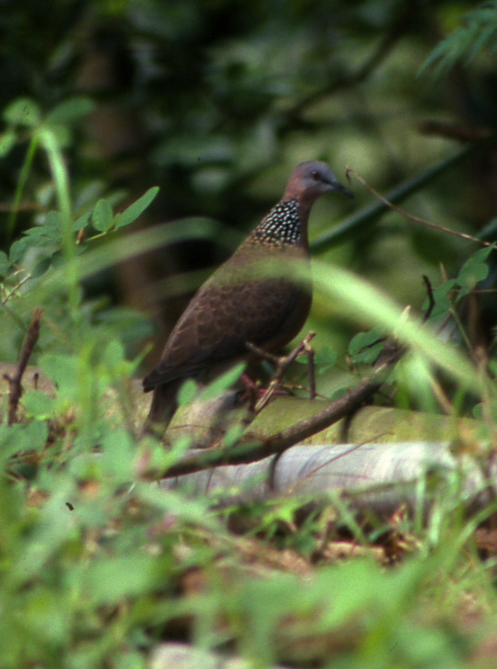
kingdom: Animalia
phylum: Chordata
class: Aves
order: Columbiformes
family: Columbidae
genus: Spilopelia
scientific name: Spilopelia chinensis
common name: Spotted dove
